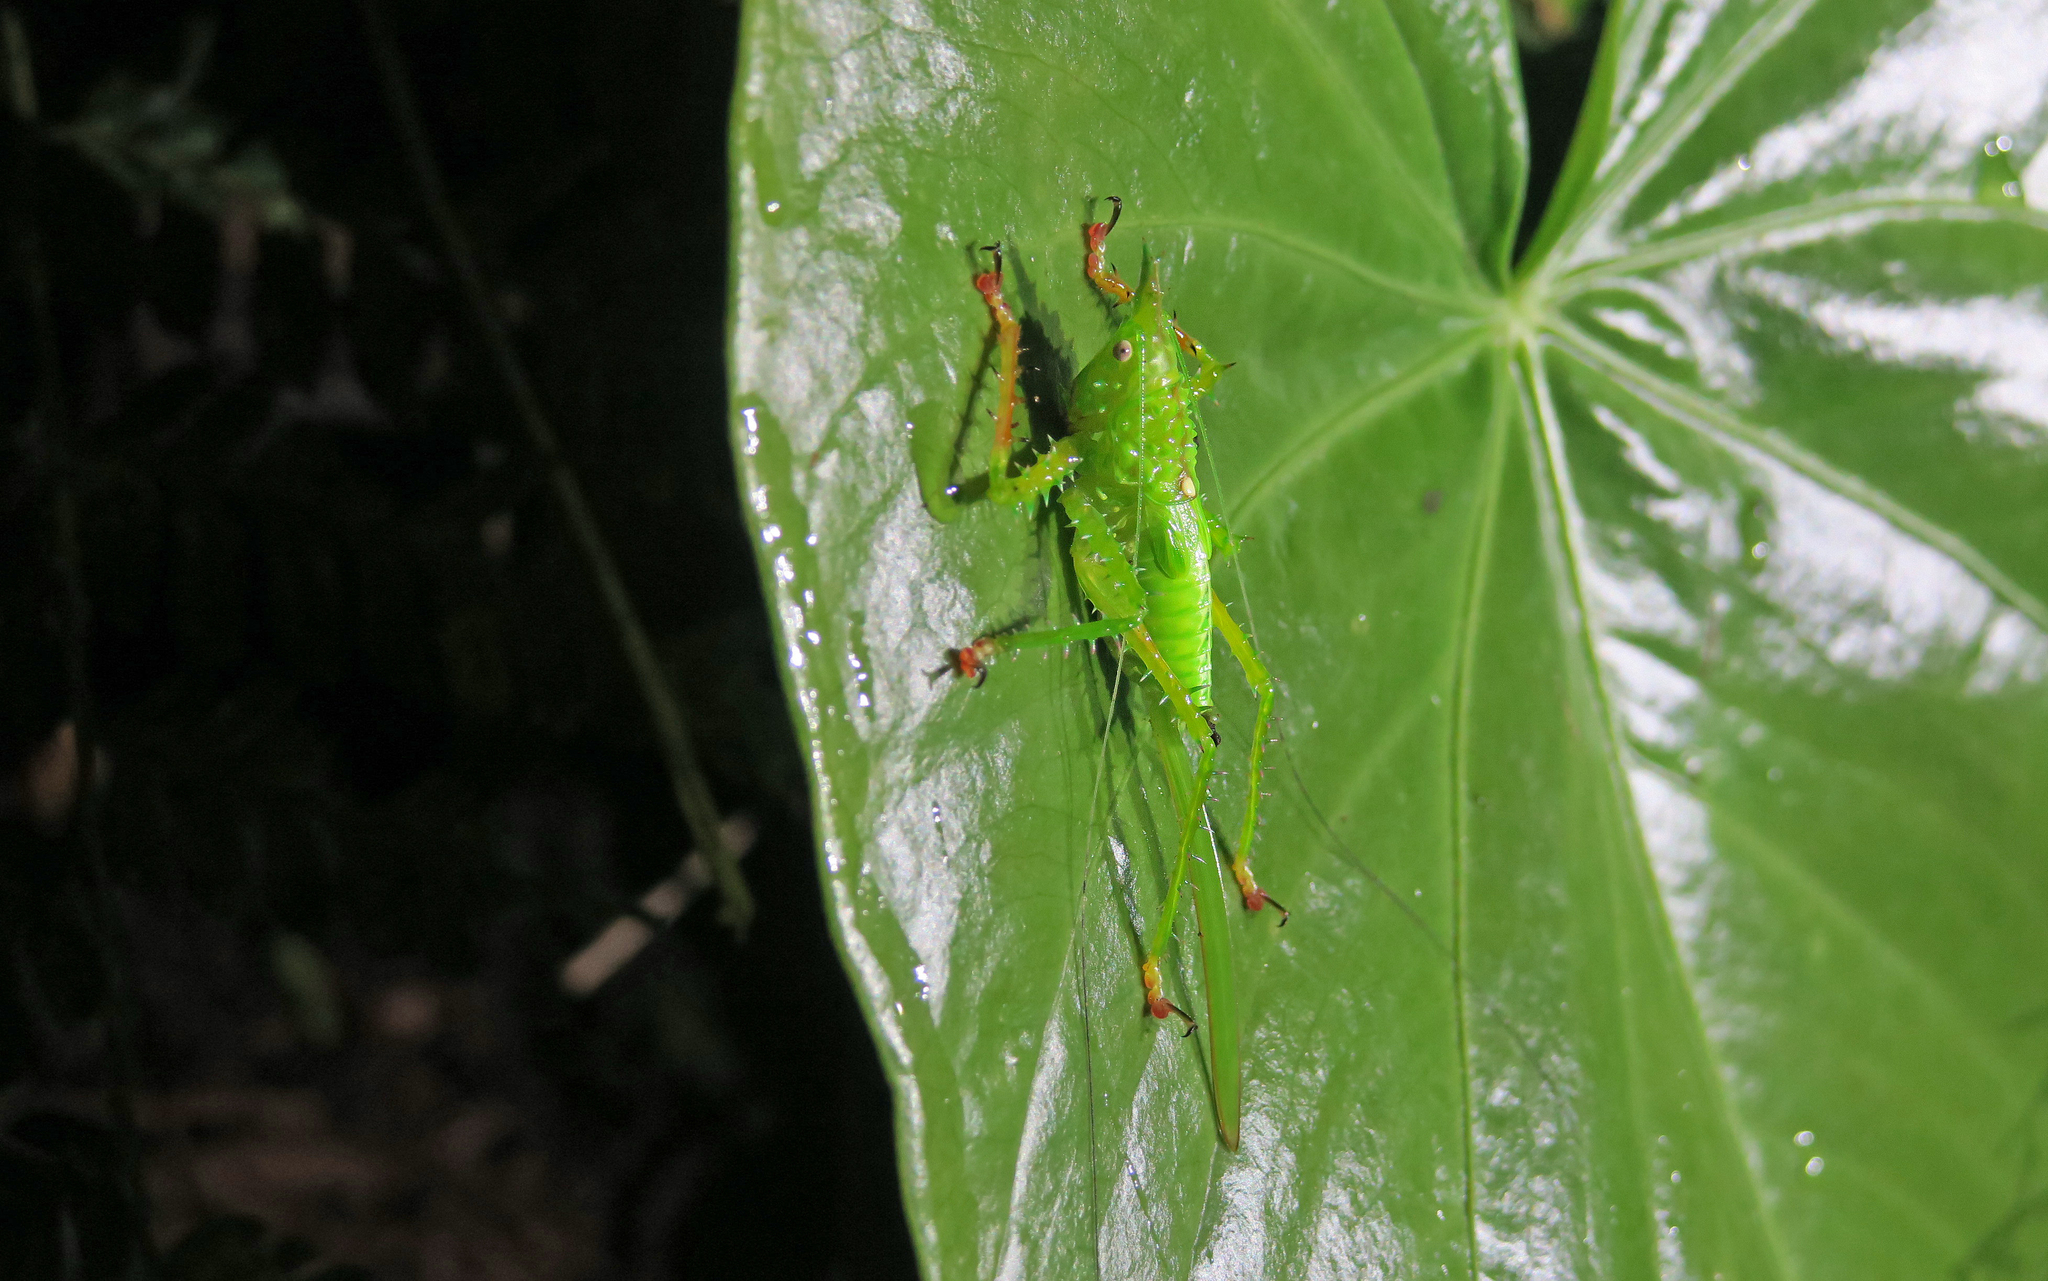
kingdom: Animalia
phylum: Arthropoda
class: Insecta
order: Orthoptera
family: Tettigoniidae
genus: Panacanthus
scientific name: Panacanthus pallicornis
